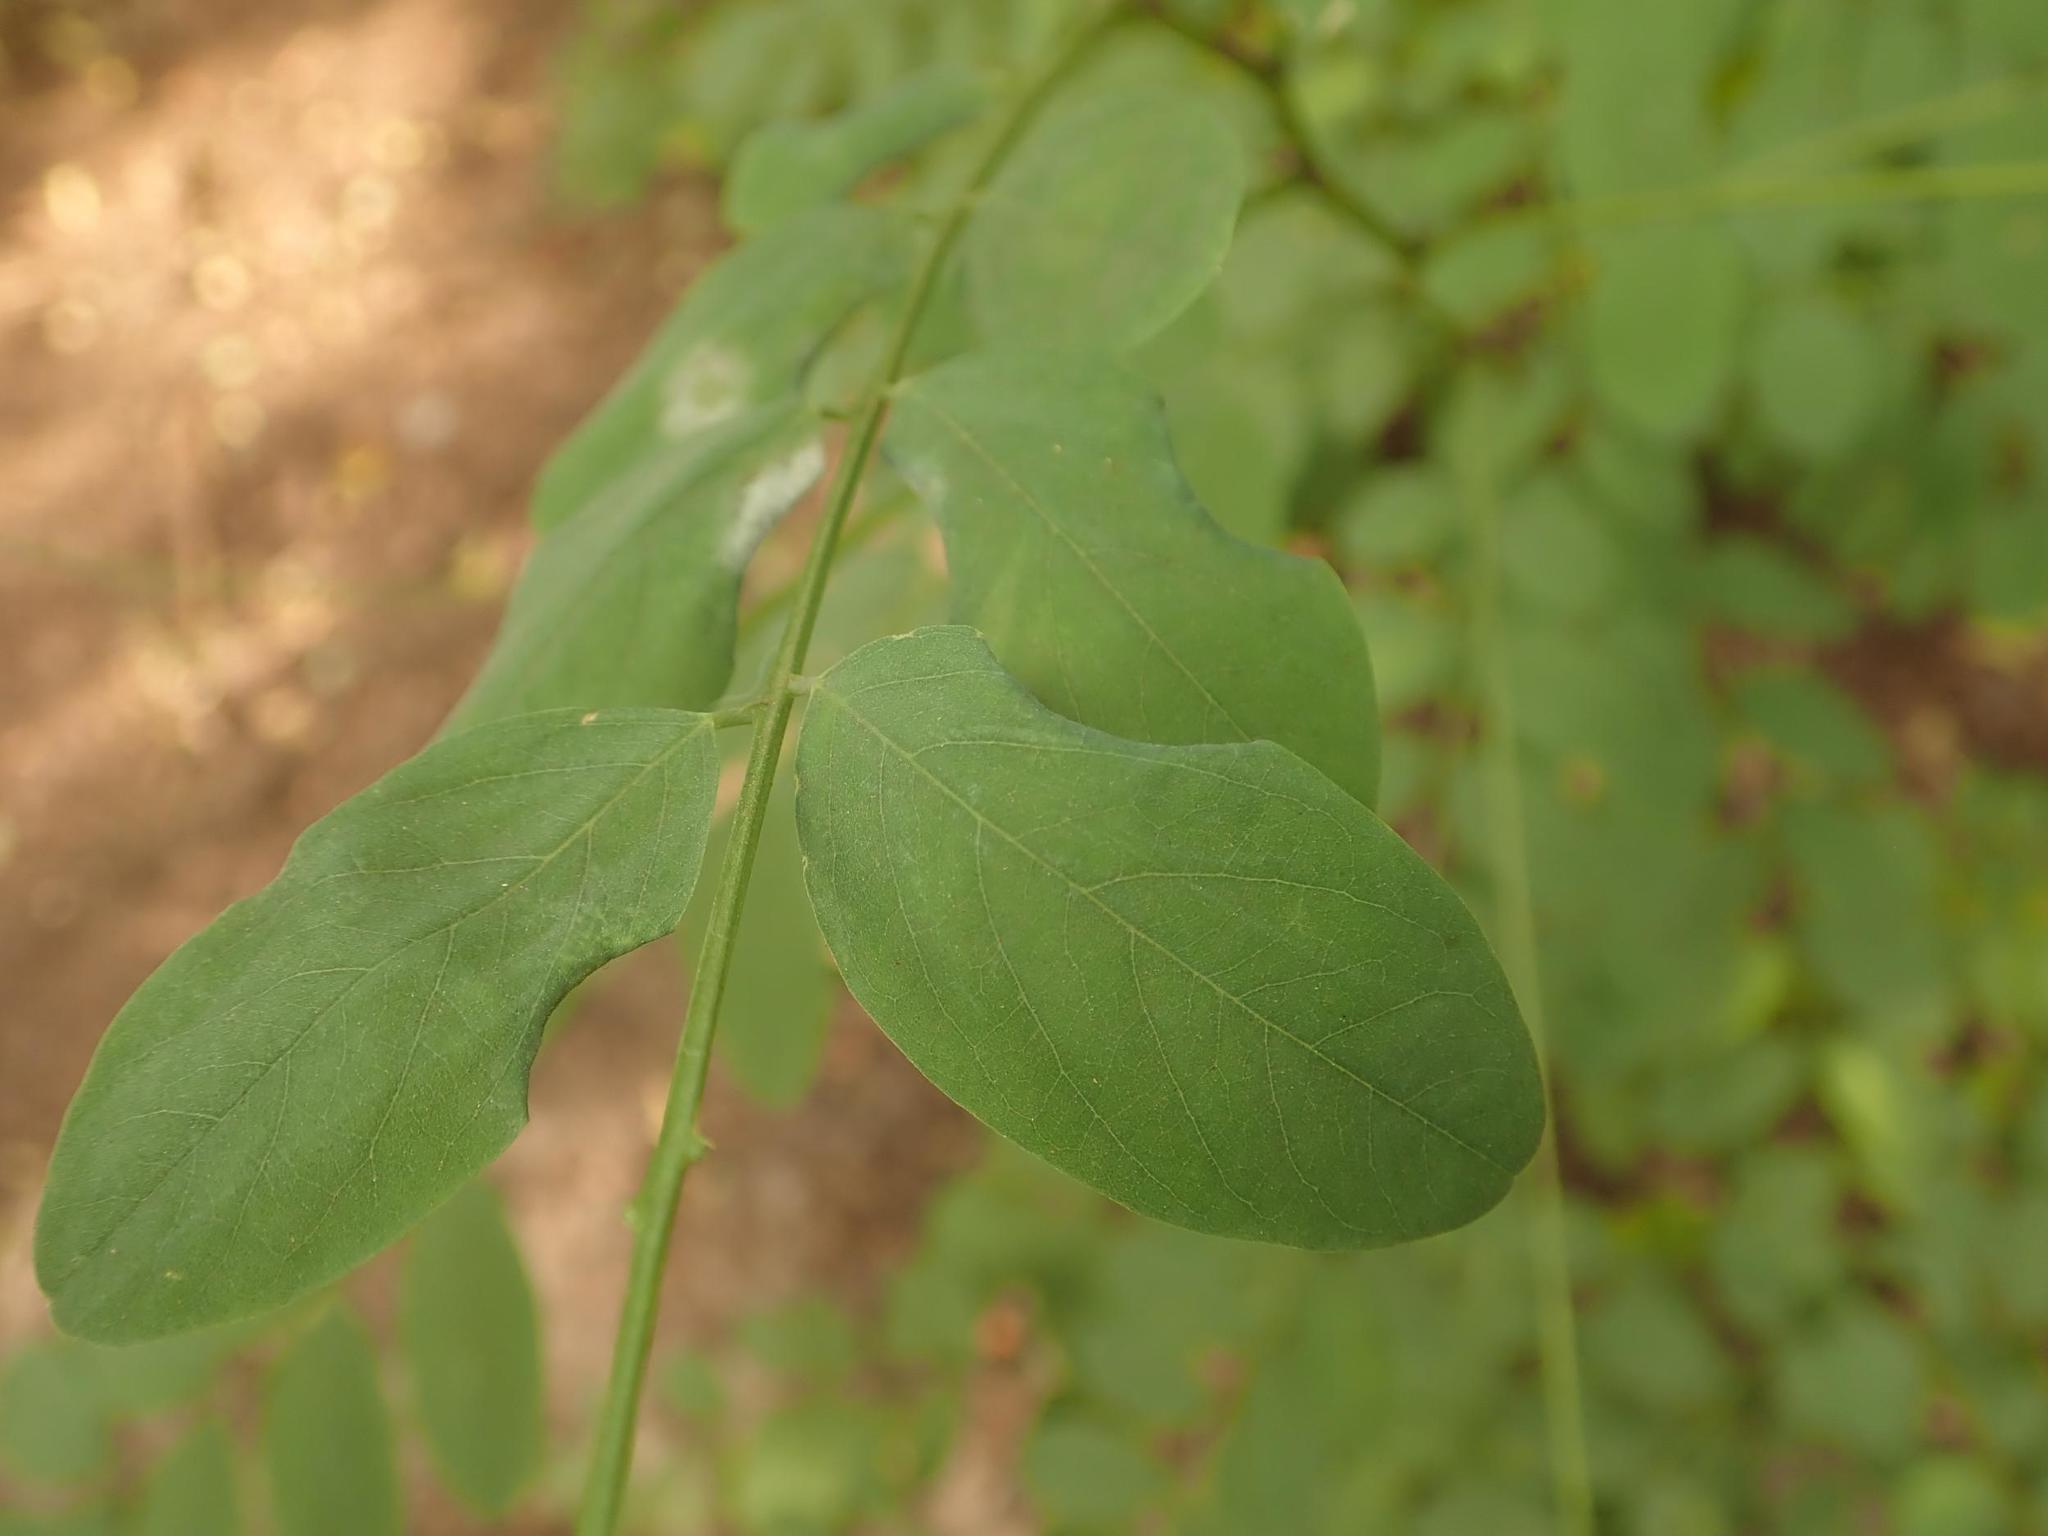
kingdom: Plantae
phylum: Tracheophyta
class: Magnoliopsida
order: Fabales
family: Fabaceae
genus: Robinia
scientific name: Robinia pseudoacacia
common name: Black locust
